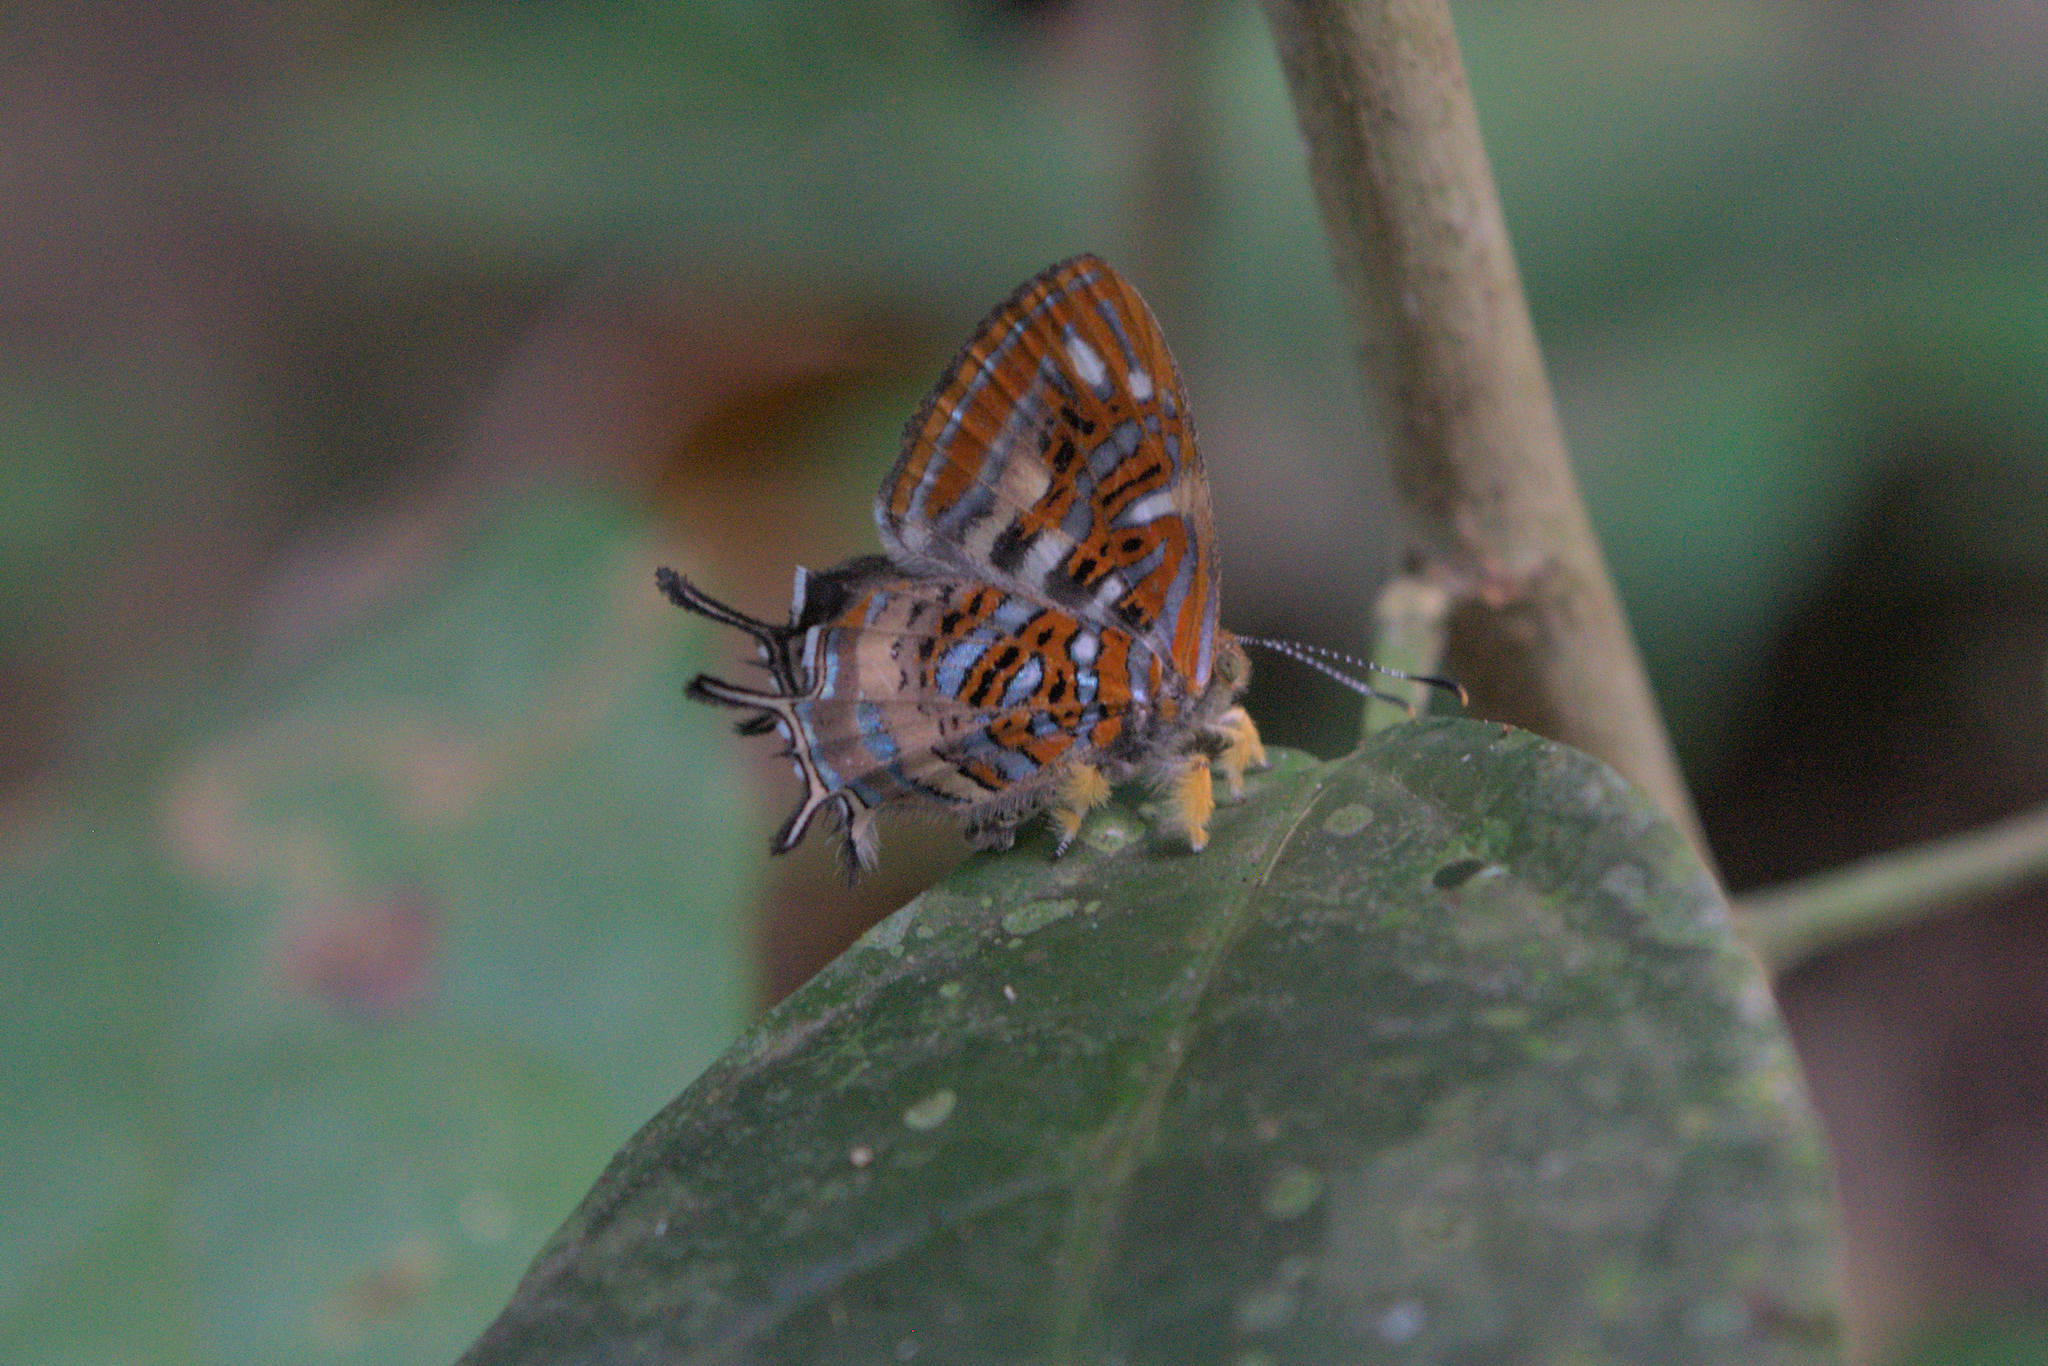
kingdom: Animalia
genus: Charis
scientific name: Charis chrysus
